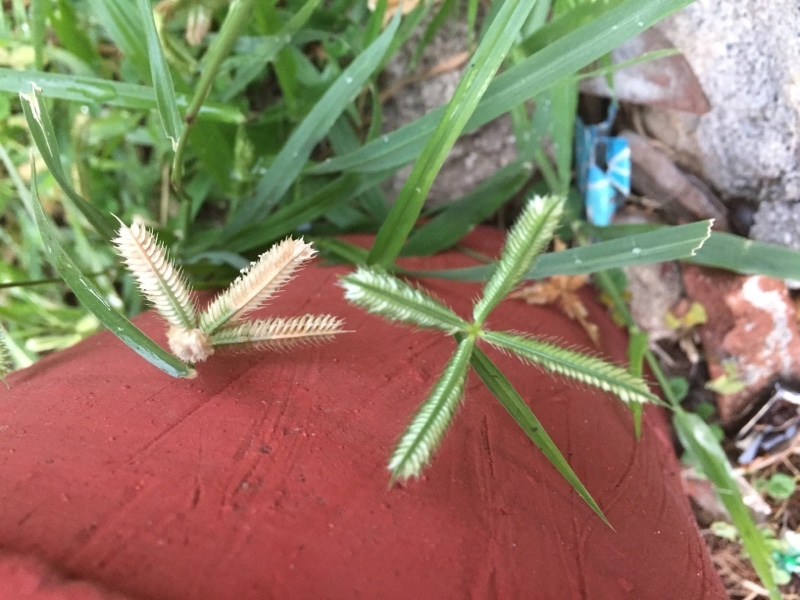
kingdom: Plantae
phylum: Tracheophyta
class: Liliopsida
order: Poales
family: Poaceae
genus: Dactyloctenium
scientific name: Dactyloctenium aegyptium
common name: Egyptian grass
